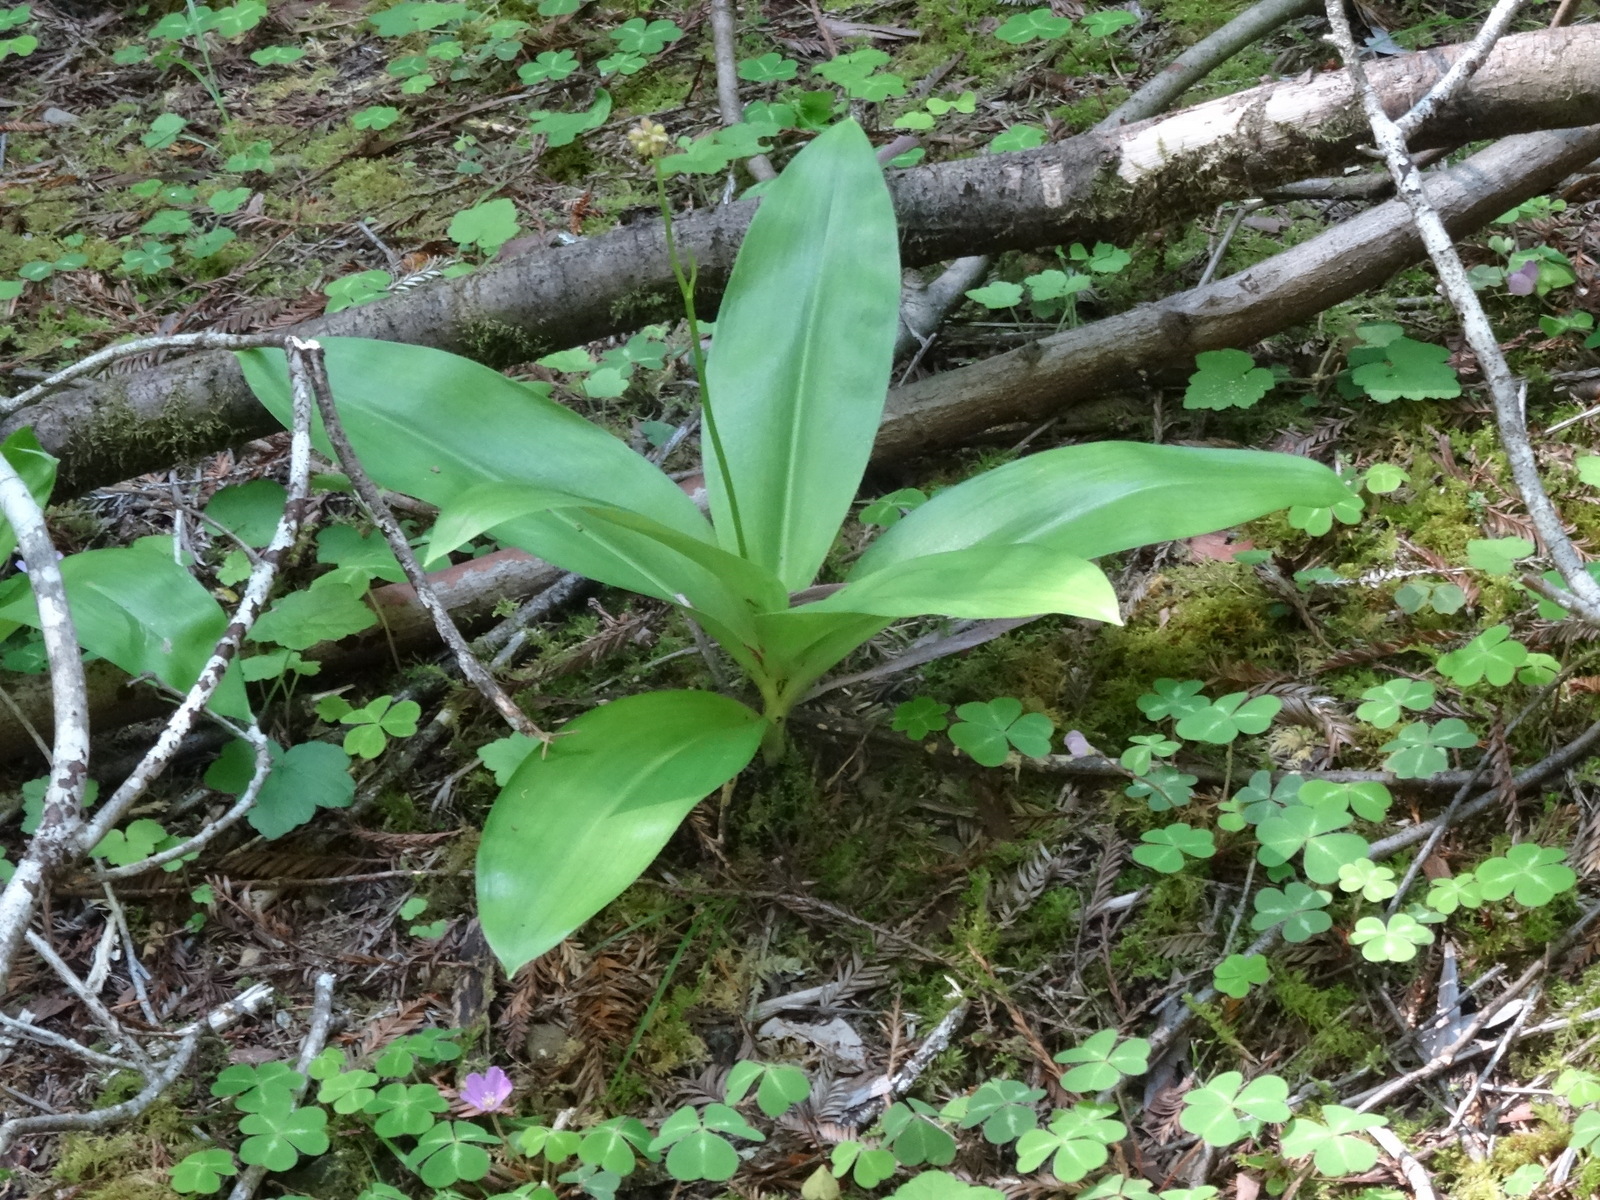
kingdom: Plantae
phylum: Tracheophyta
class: Liliopsida
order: Liliales
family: Liliaceae
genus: Clintonia
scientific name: Clintonia andrewsiana
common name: Red clintonia
